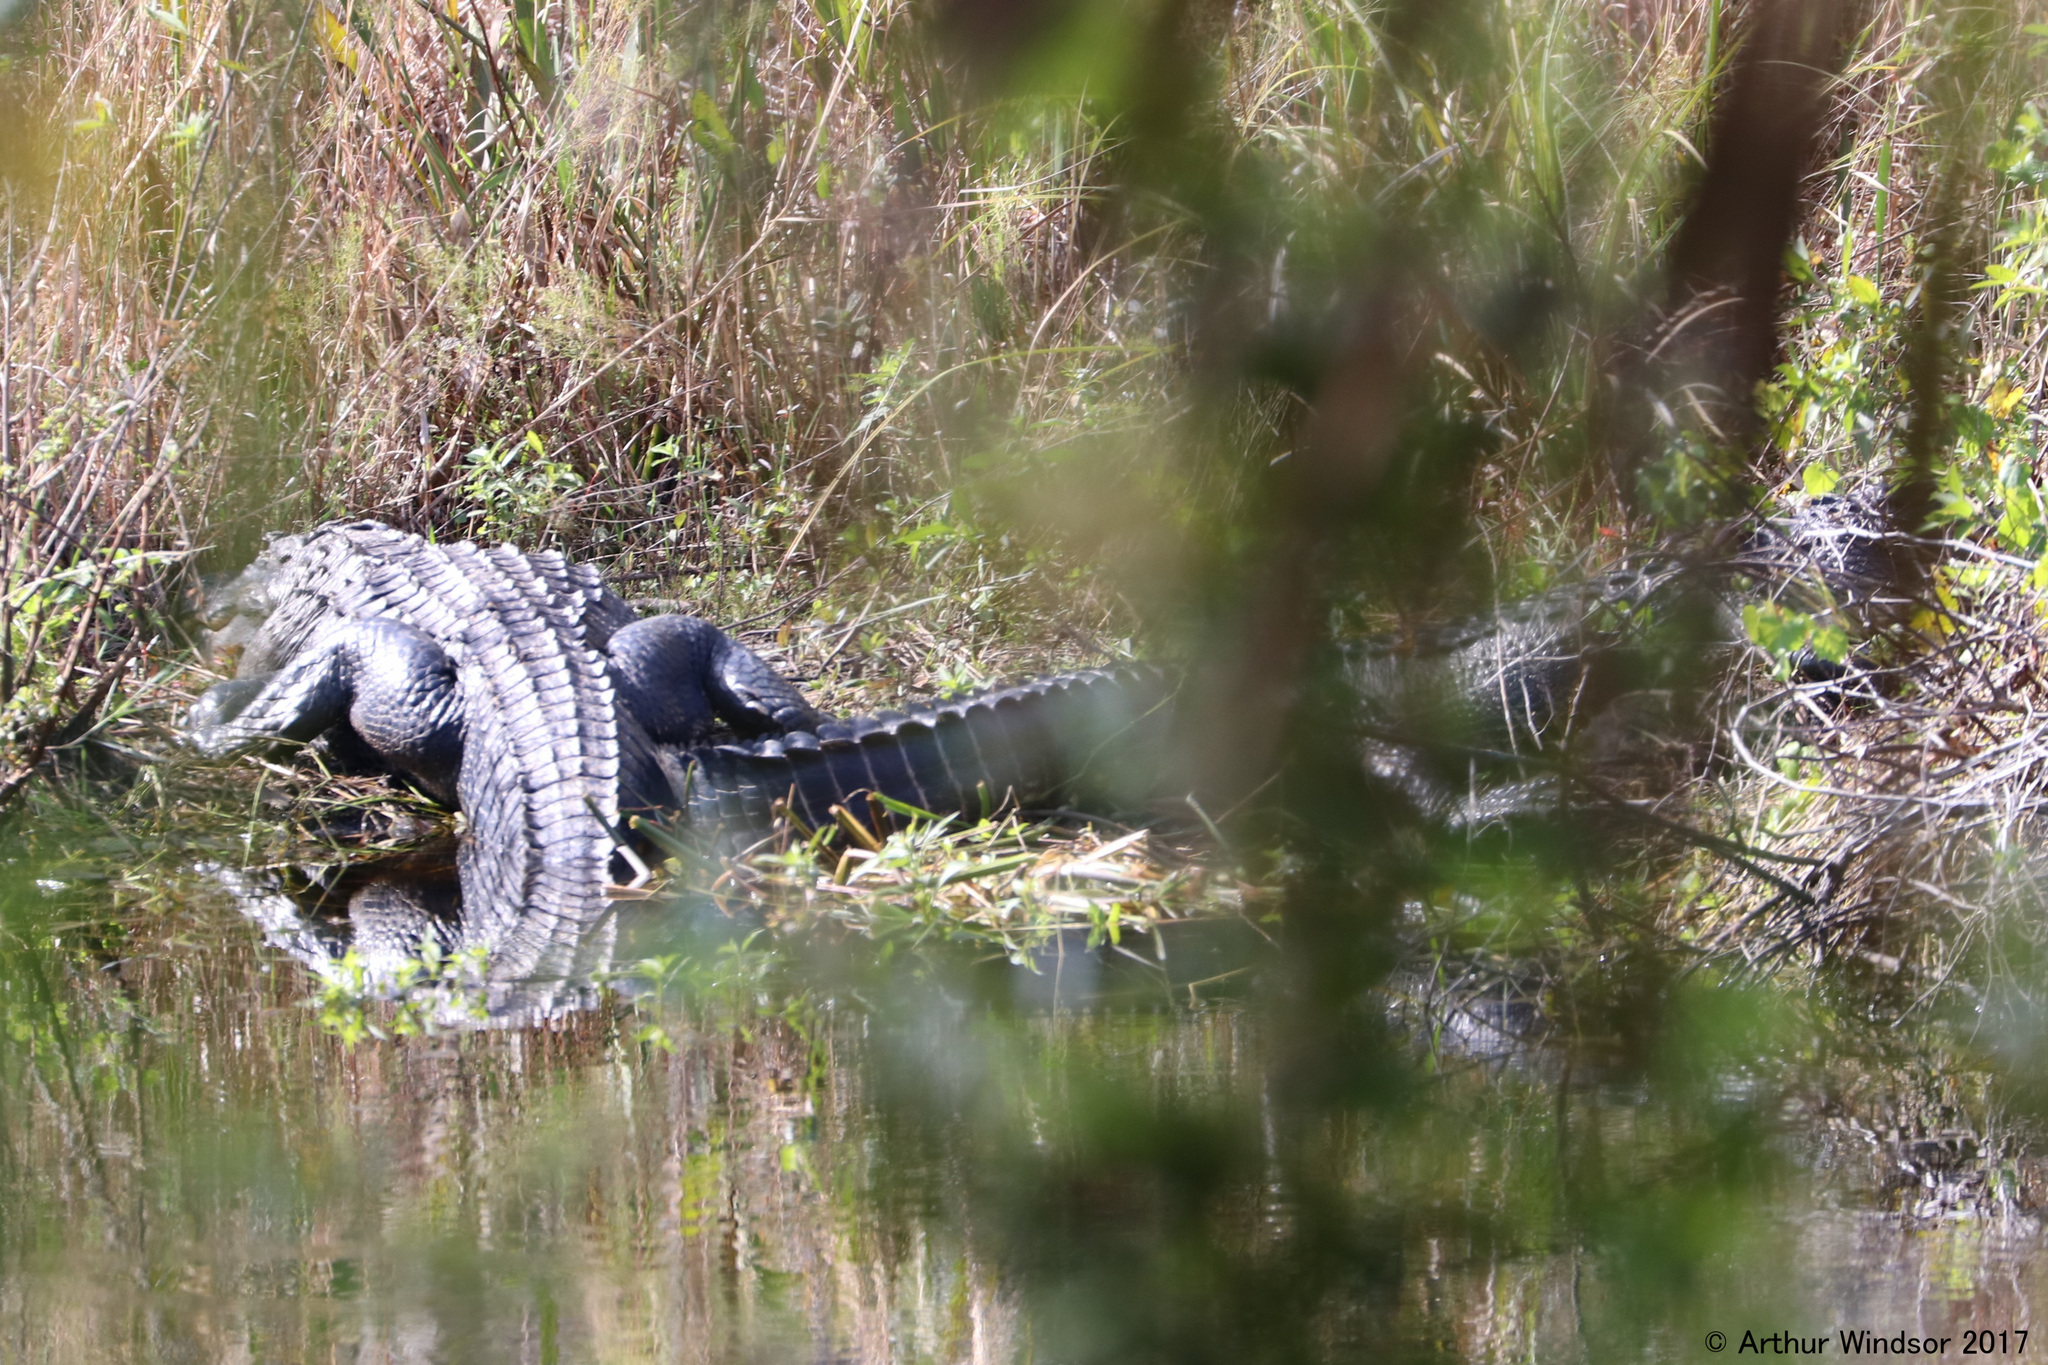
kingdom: Animalia
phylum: Chordata
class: Crocodylia
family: Alligatoridae
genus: Alligator
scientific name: Alligator mississippiensis
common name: American alligator
